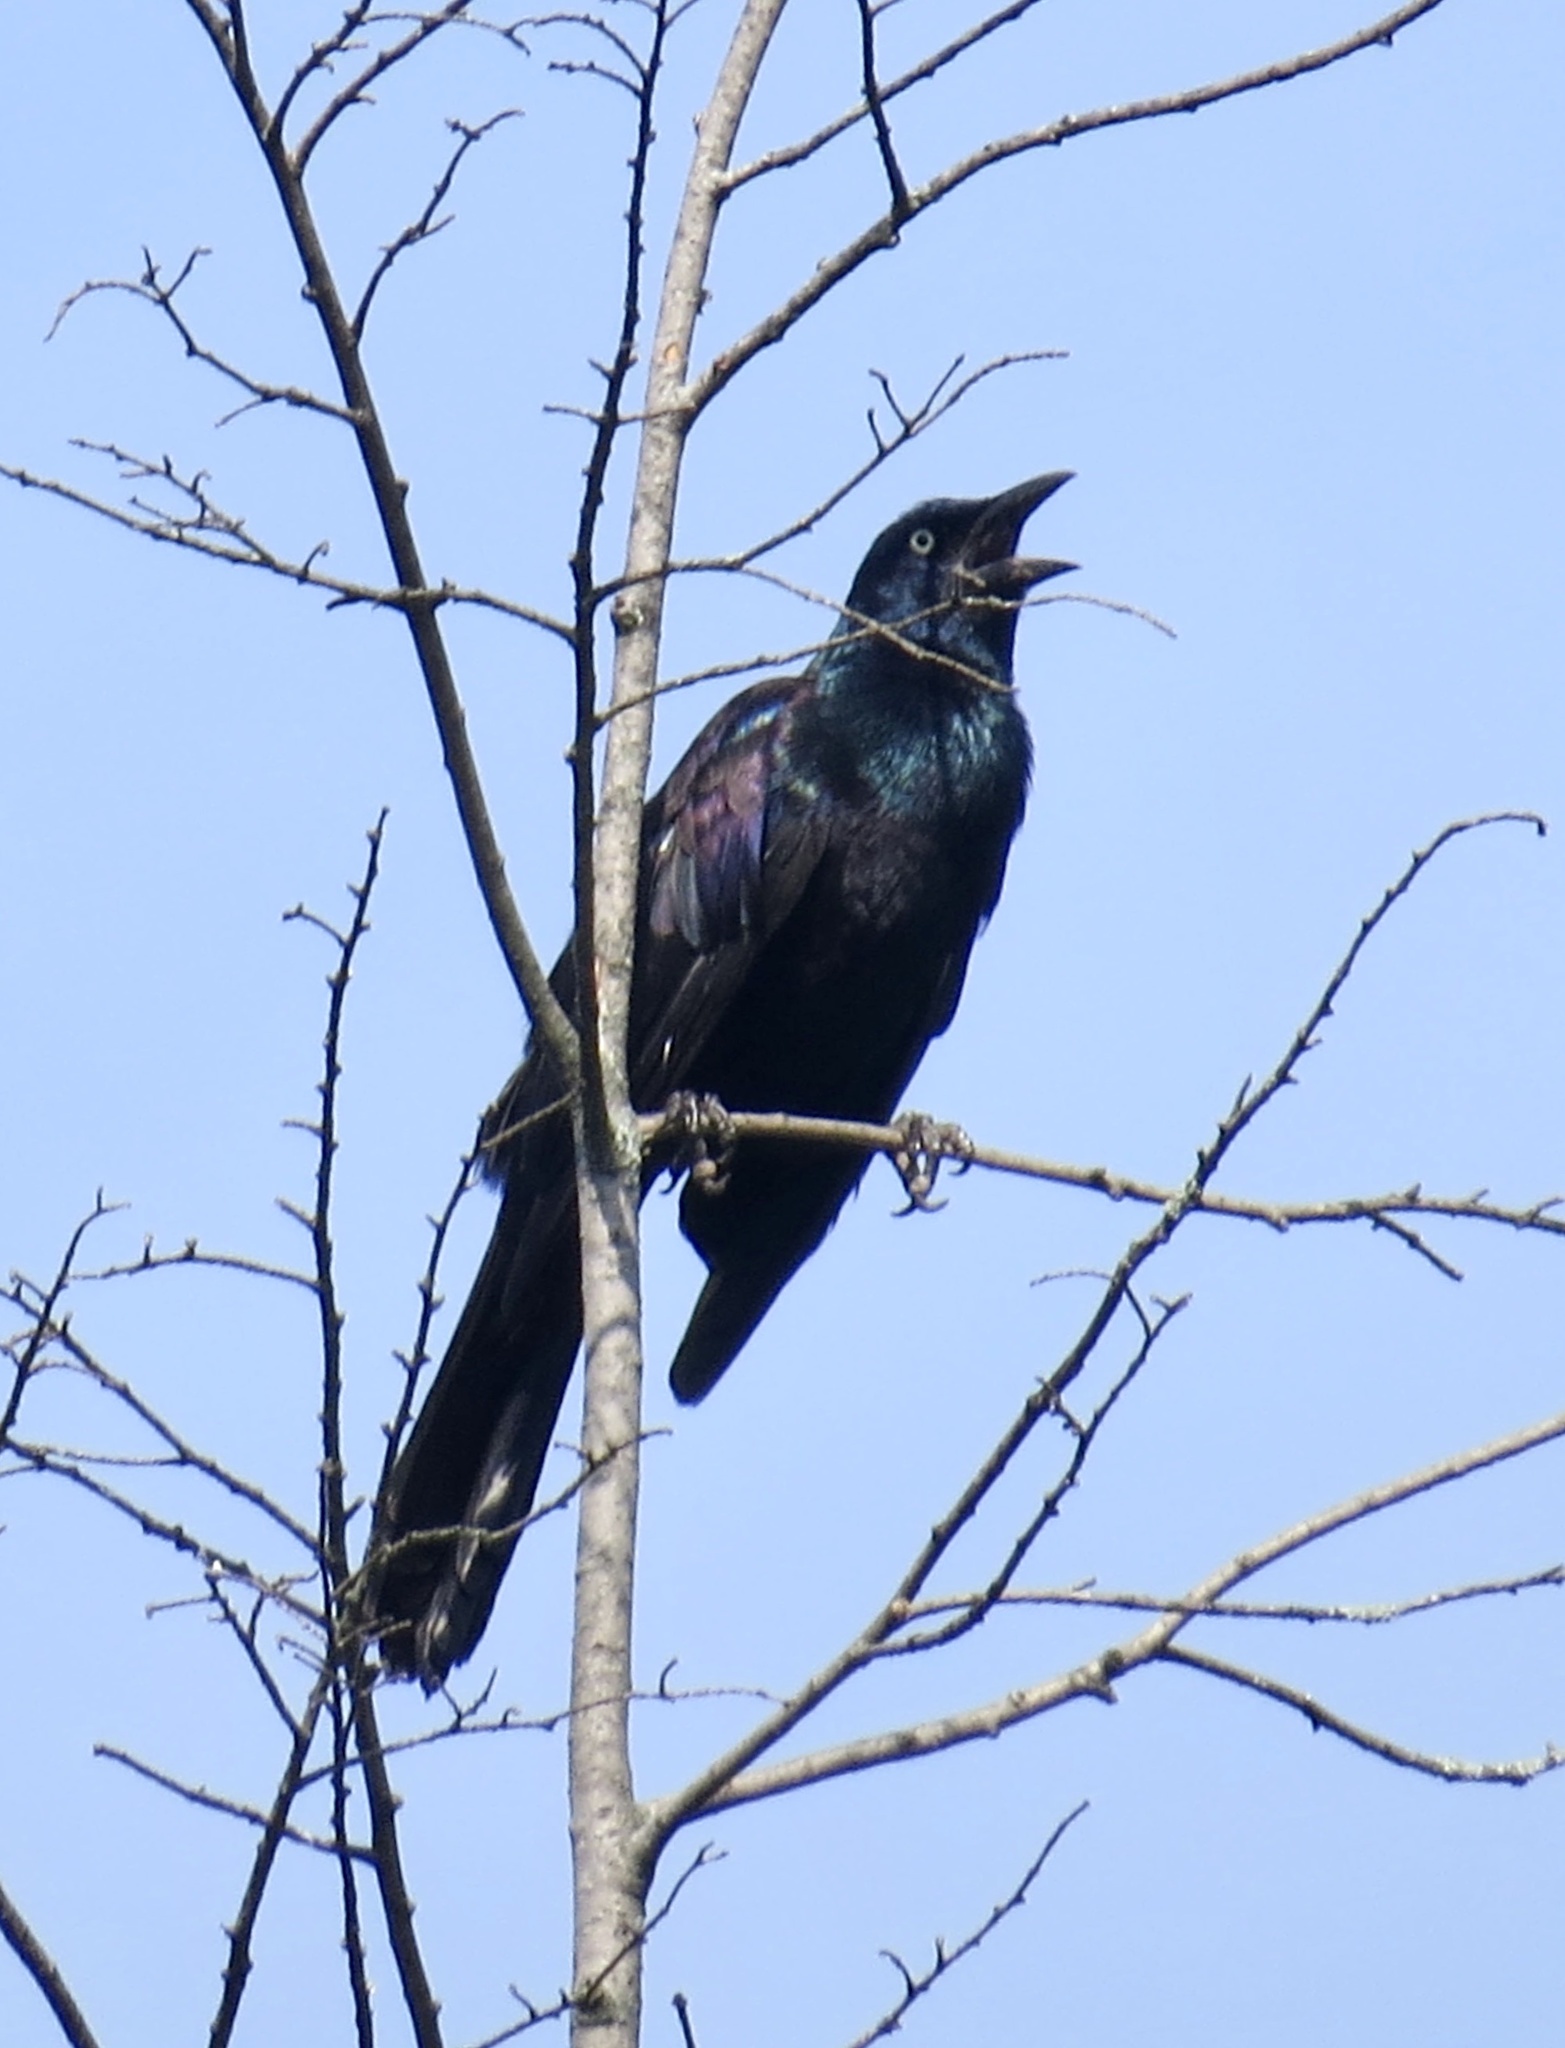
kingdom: Animalia
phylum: Chordata
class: Aves
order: Passeriformes
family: Icteridae
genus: Quiscalus
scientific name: Quiscalus quiscula
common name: Common grackle
